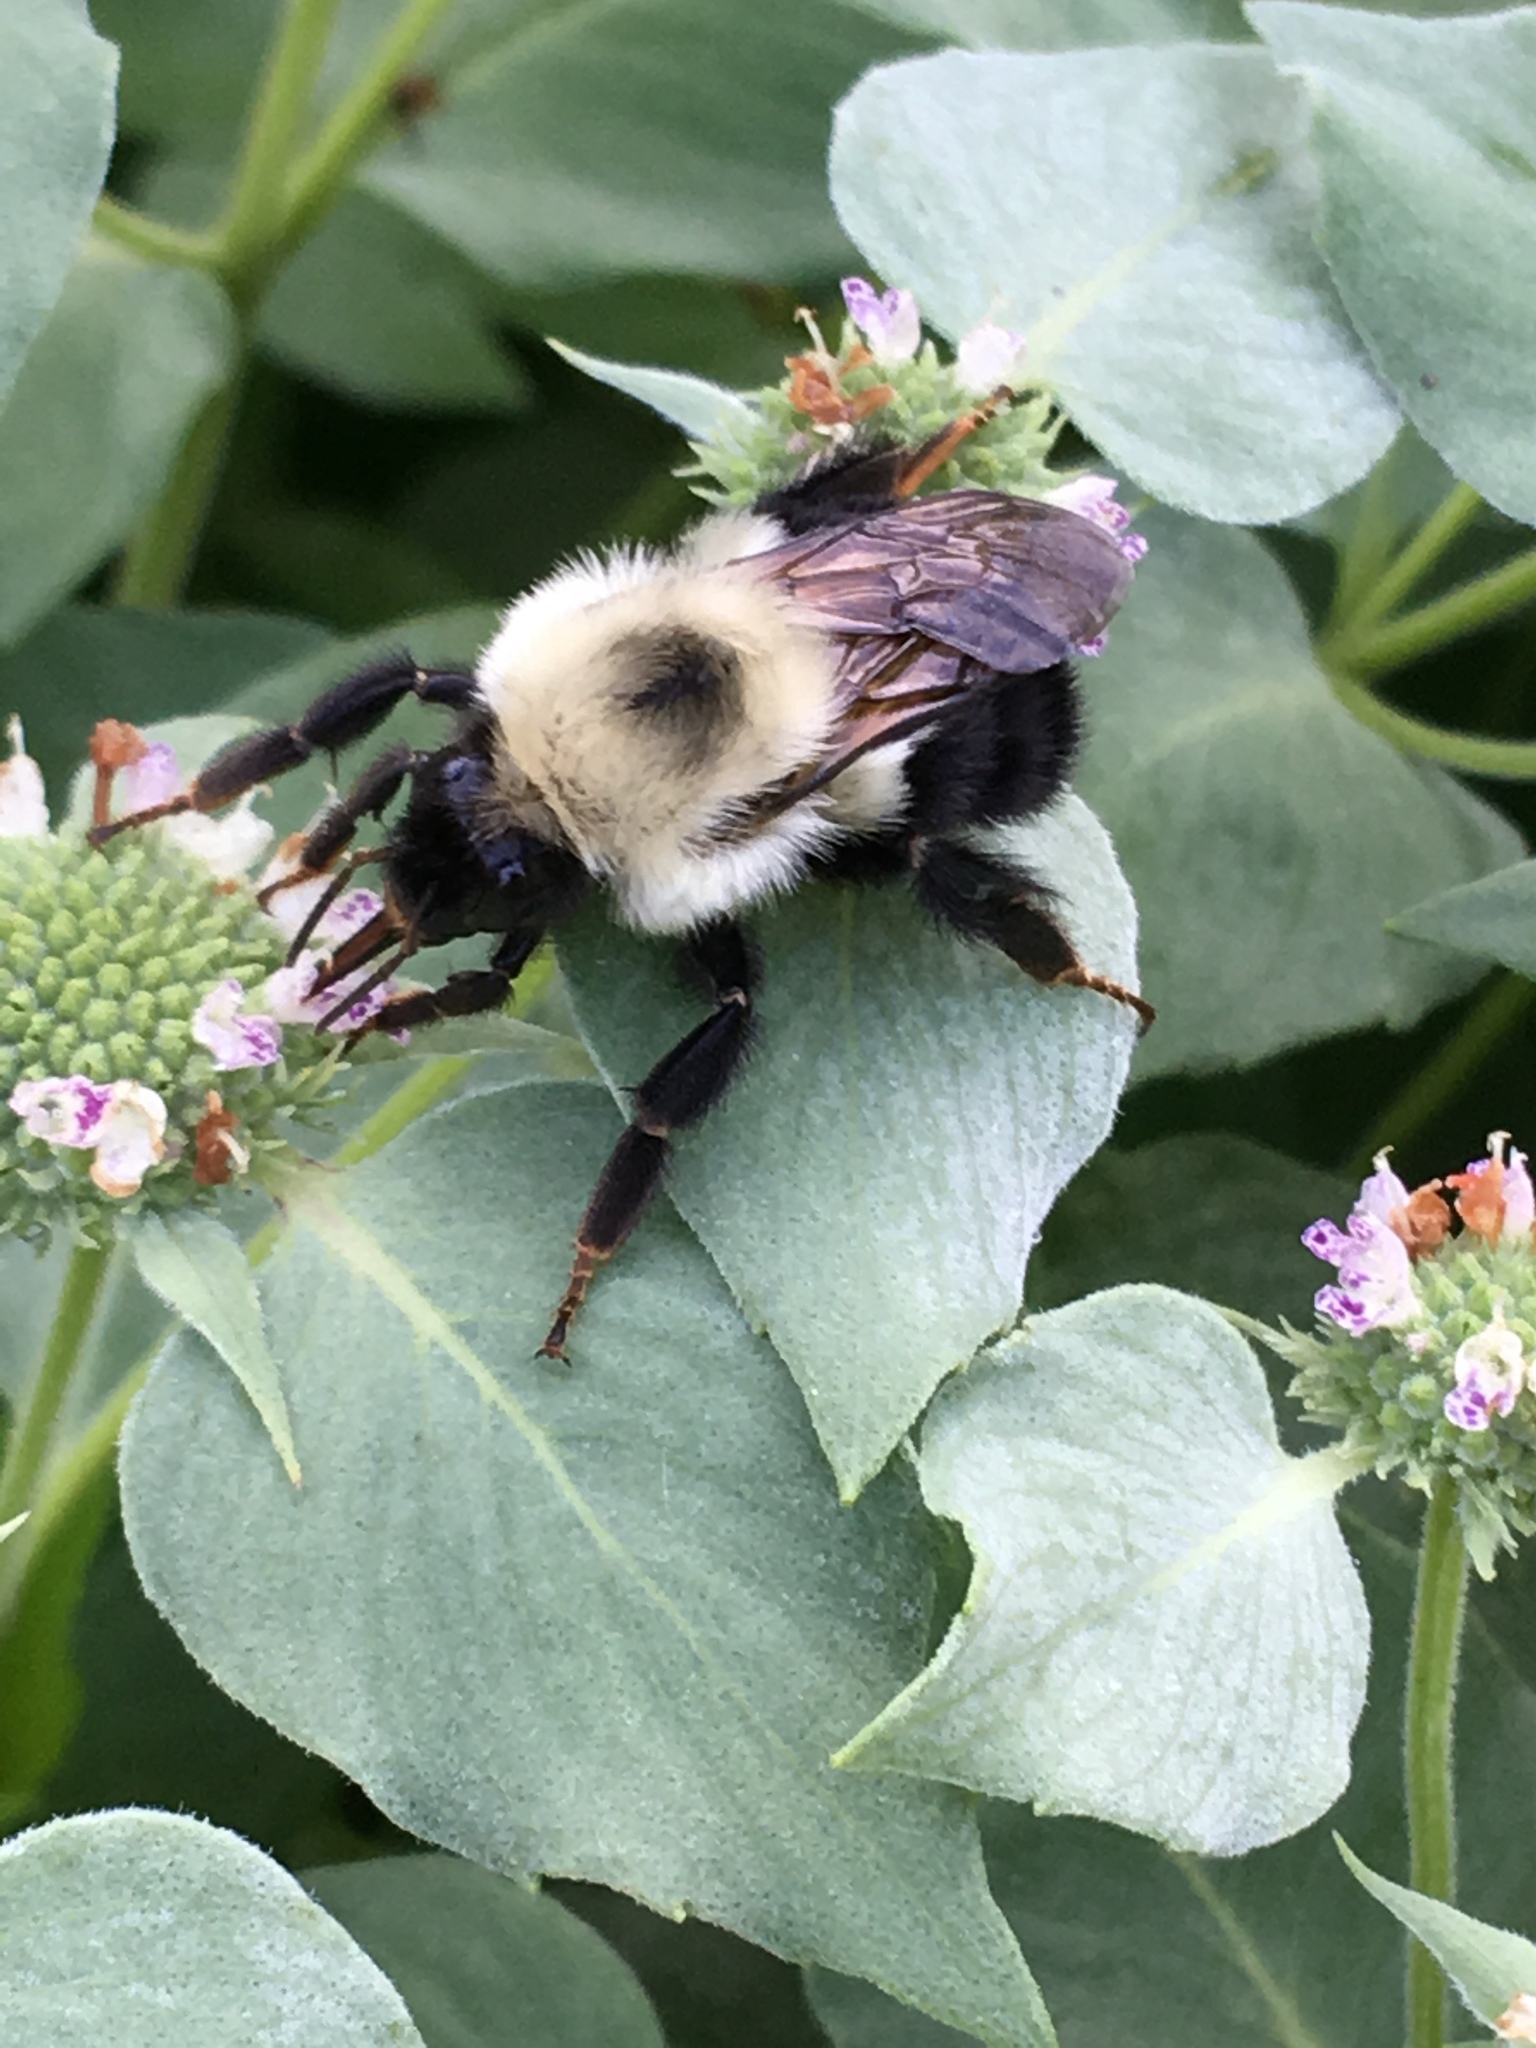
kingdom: Animalia
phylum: Arthropoda
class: Insecta
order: Hymenoptera
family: Apidae
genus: Bombus
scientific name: Bombus bimaculatus
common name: Two-spotted bumble bee
